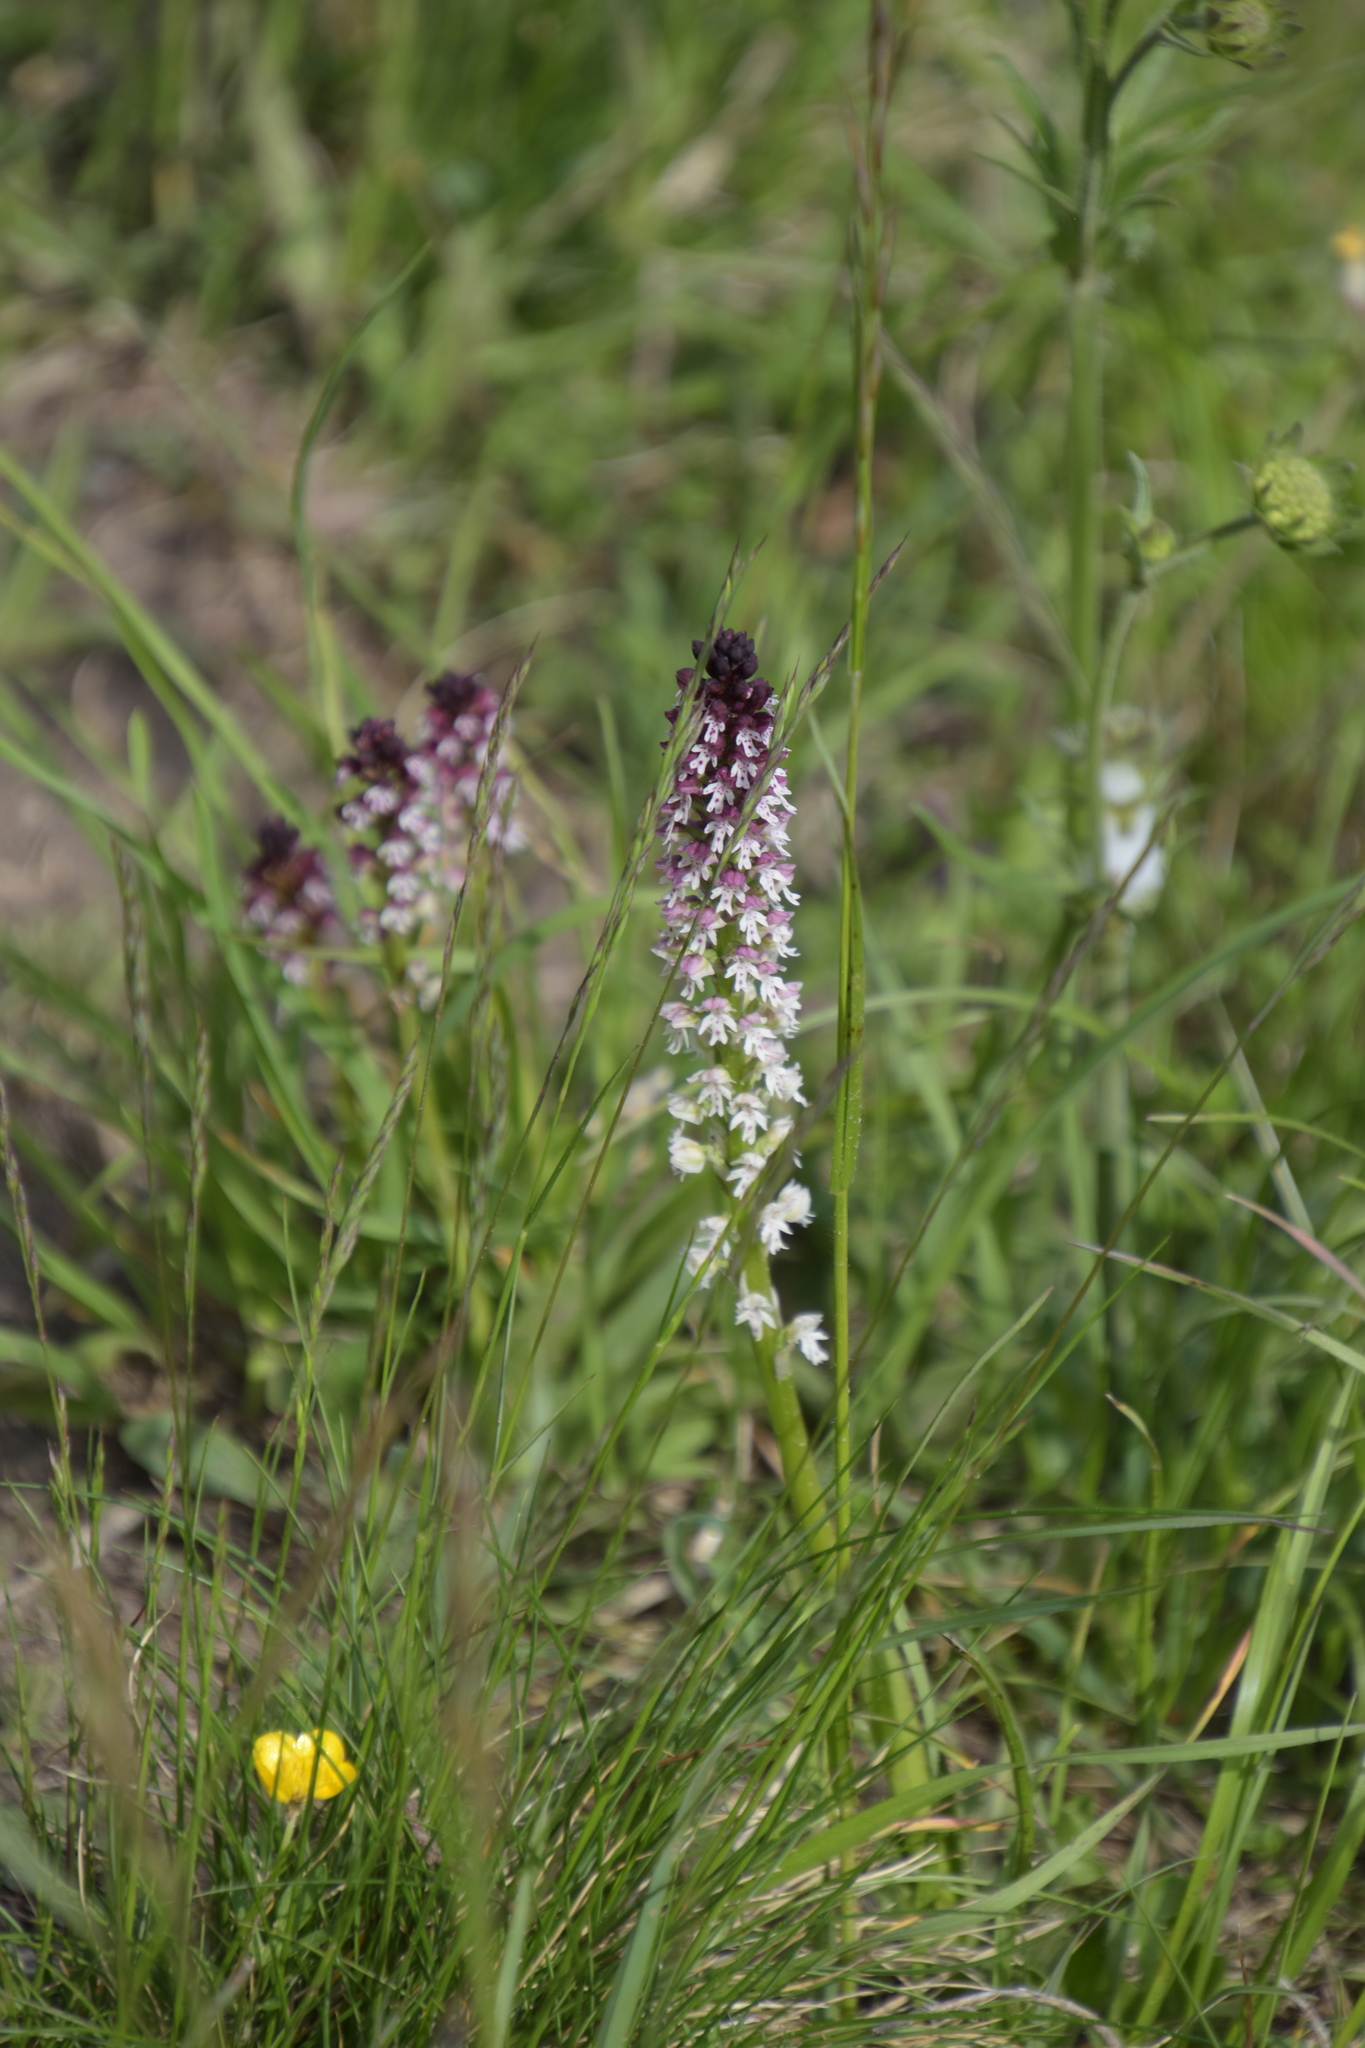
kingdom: Plantae
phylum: Tracheophyta
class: Liliopsida
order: Asparagales
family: Orchidaceae
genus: Neotinea
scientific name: Neotinea ustulata
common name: Burnt orchid
